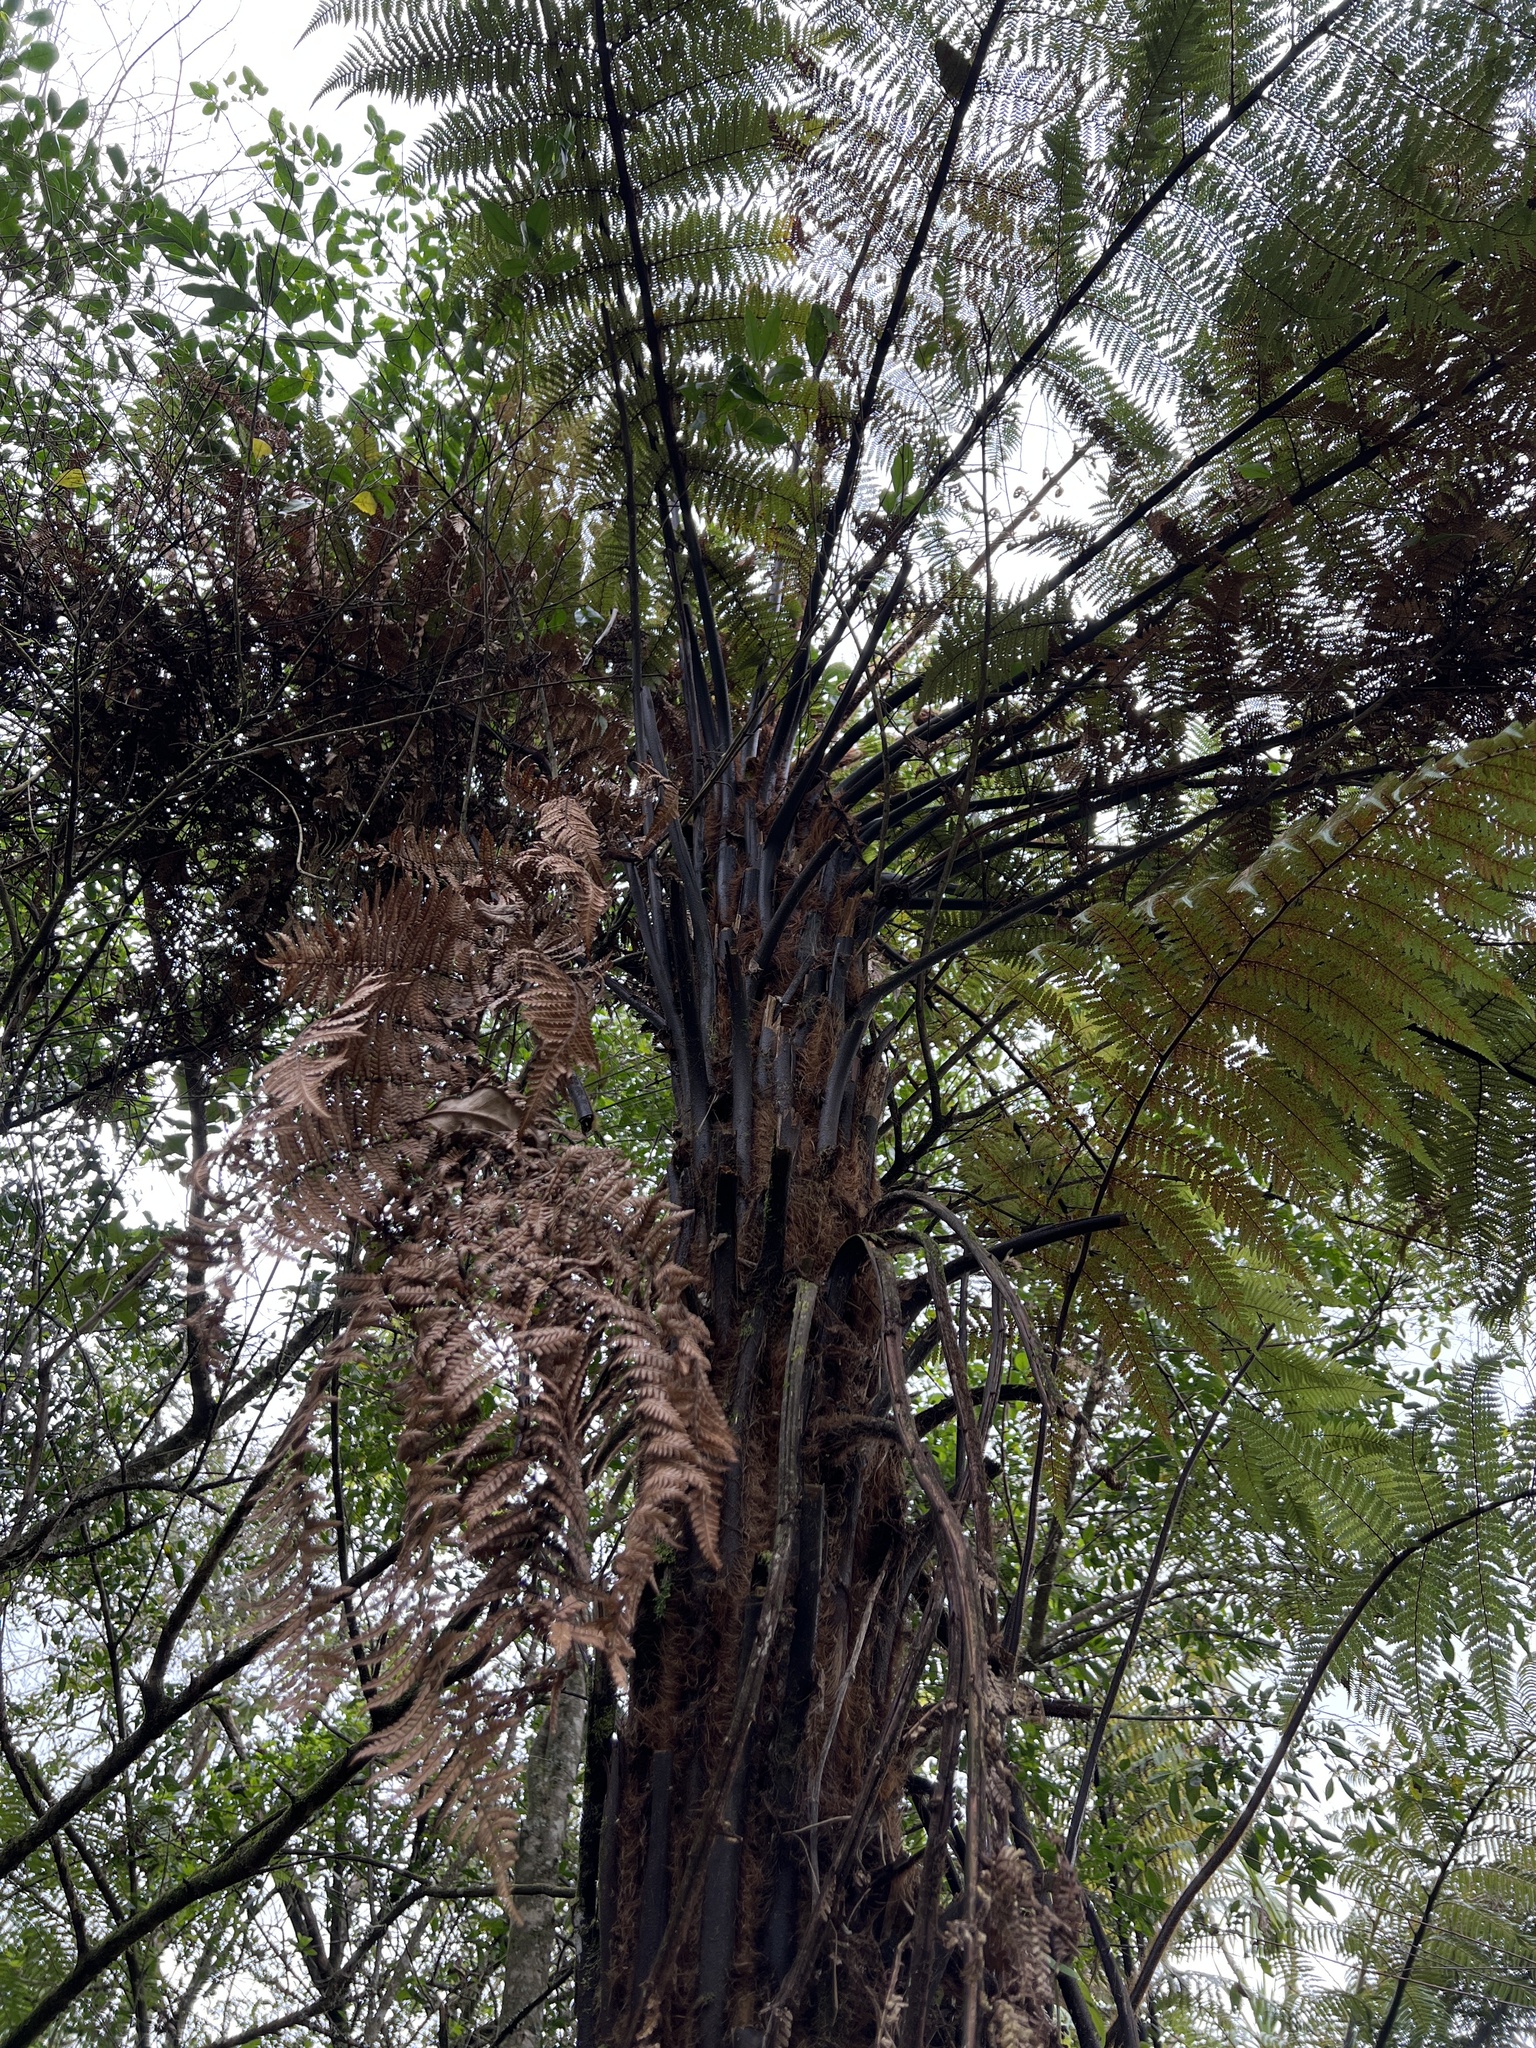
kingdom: Plantae
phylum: Tracheophyta
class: Polypodiopsida
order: Cyatheales
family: Dicksoniaceae
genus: Dicksonia
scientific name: Dicksonia squarrosa
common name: Hard treefern
